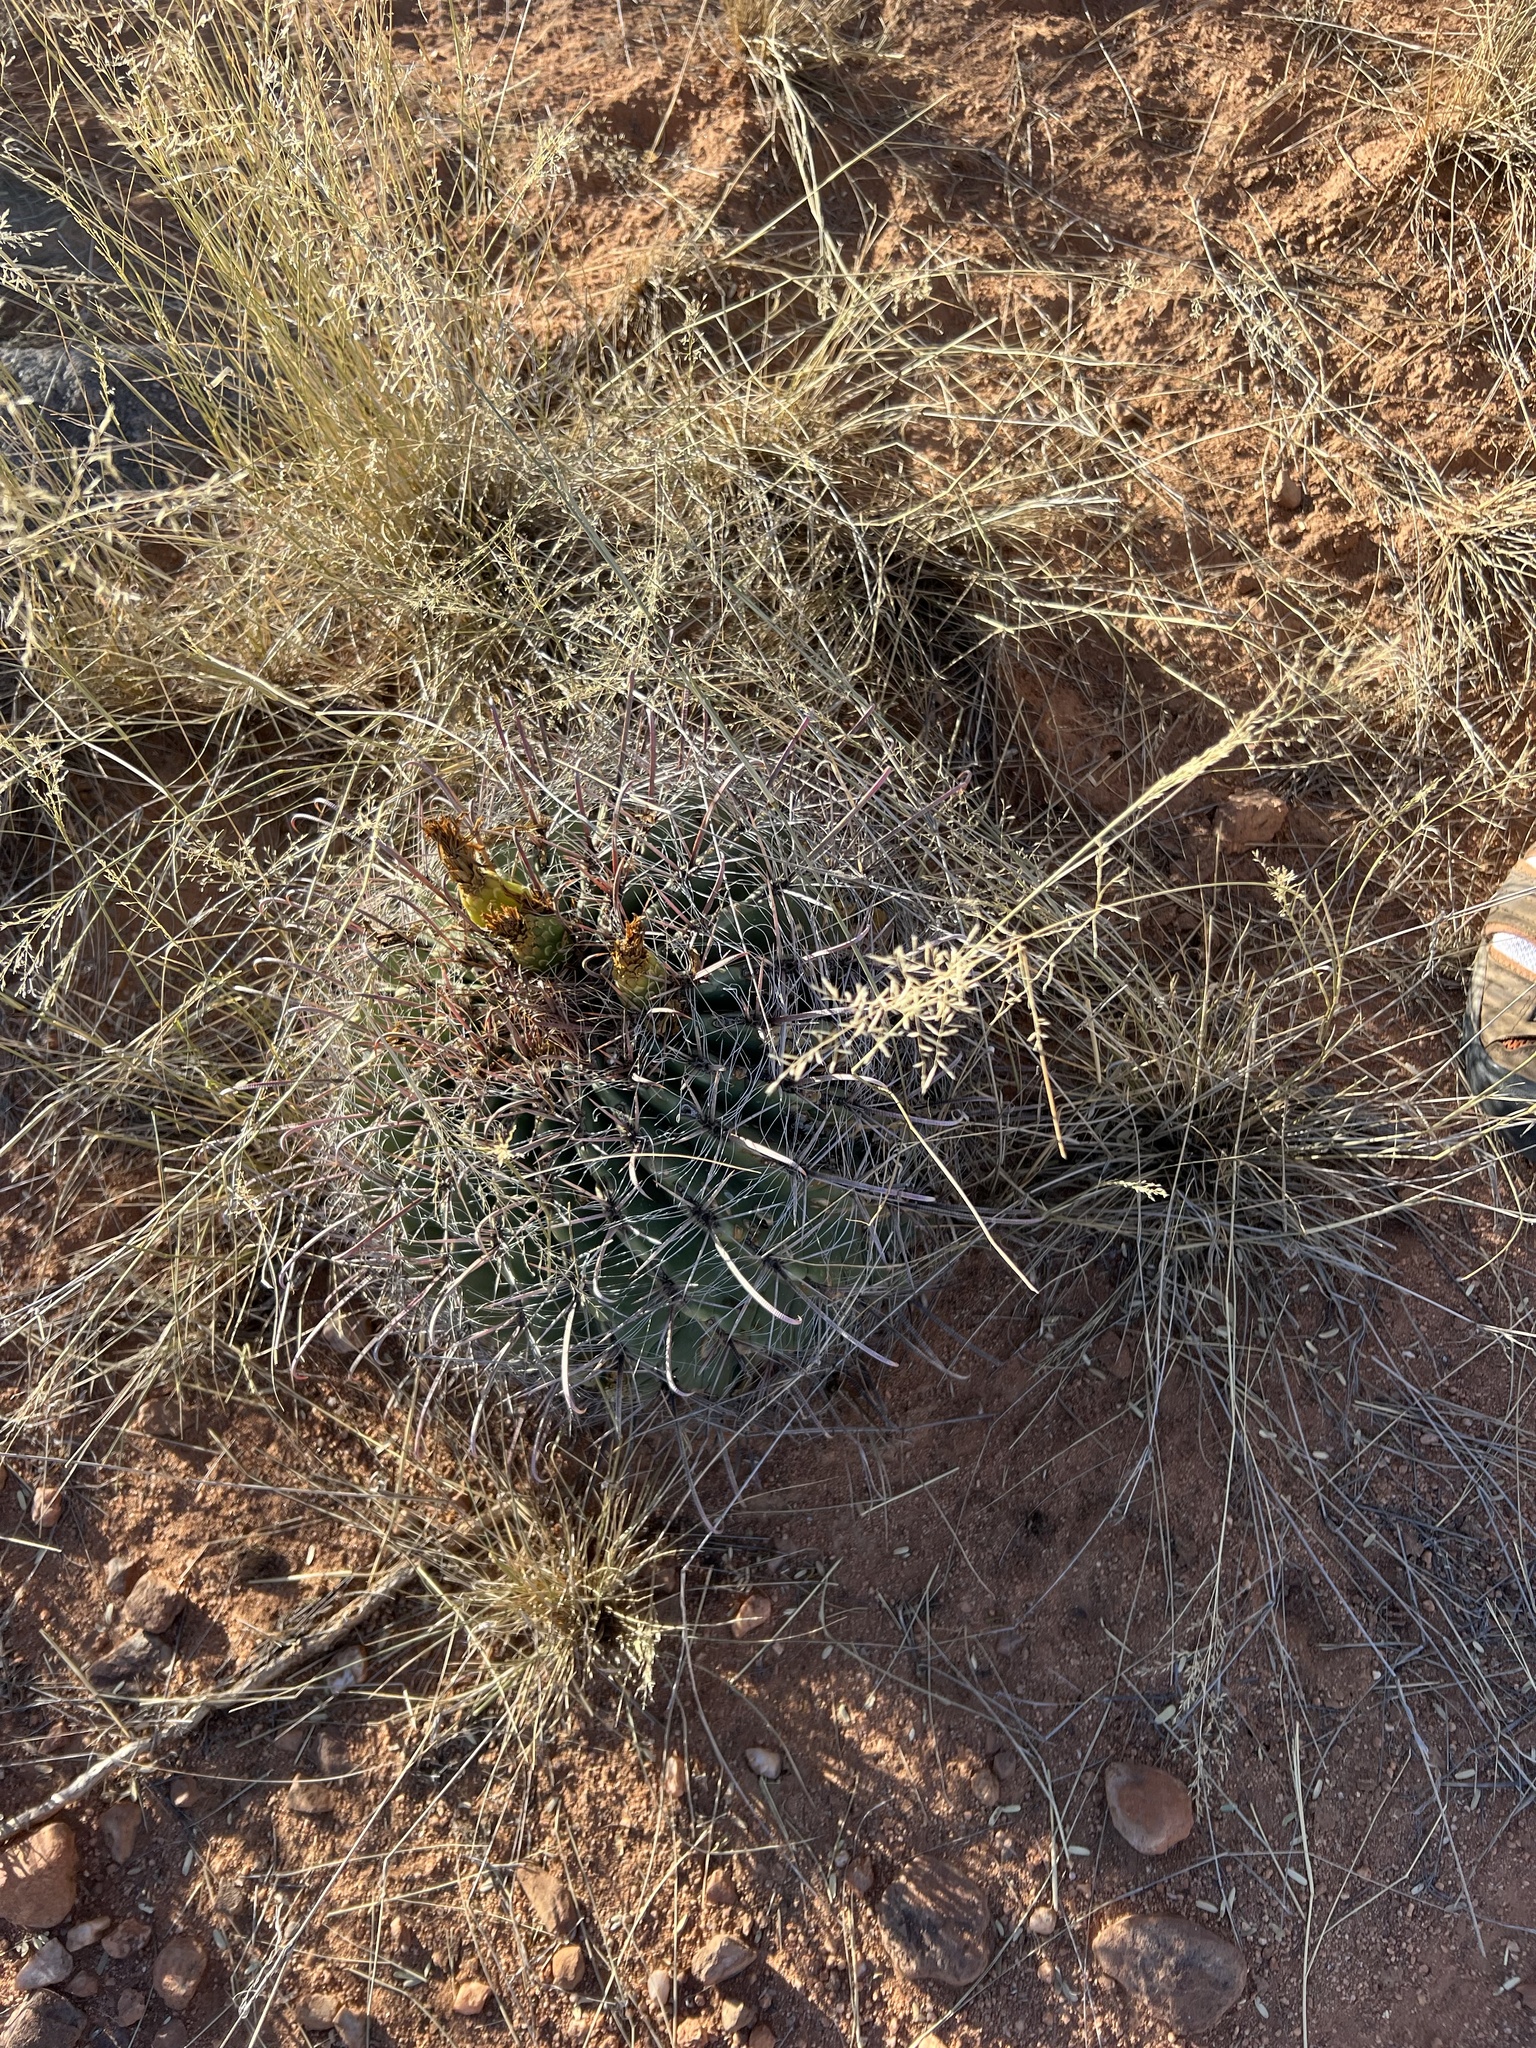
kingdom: Plantae
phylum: Tracheophyta
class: Magnoliopsida
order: Caryophyllales
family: Cactaceae
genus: Ferocactus
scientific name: Ferocactus wislizeni
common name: Candy barrel cactus
